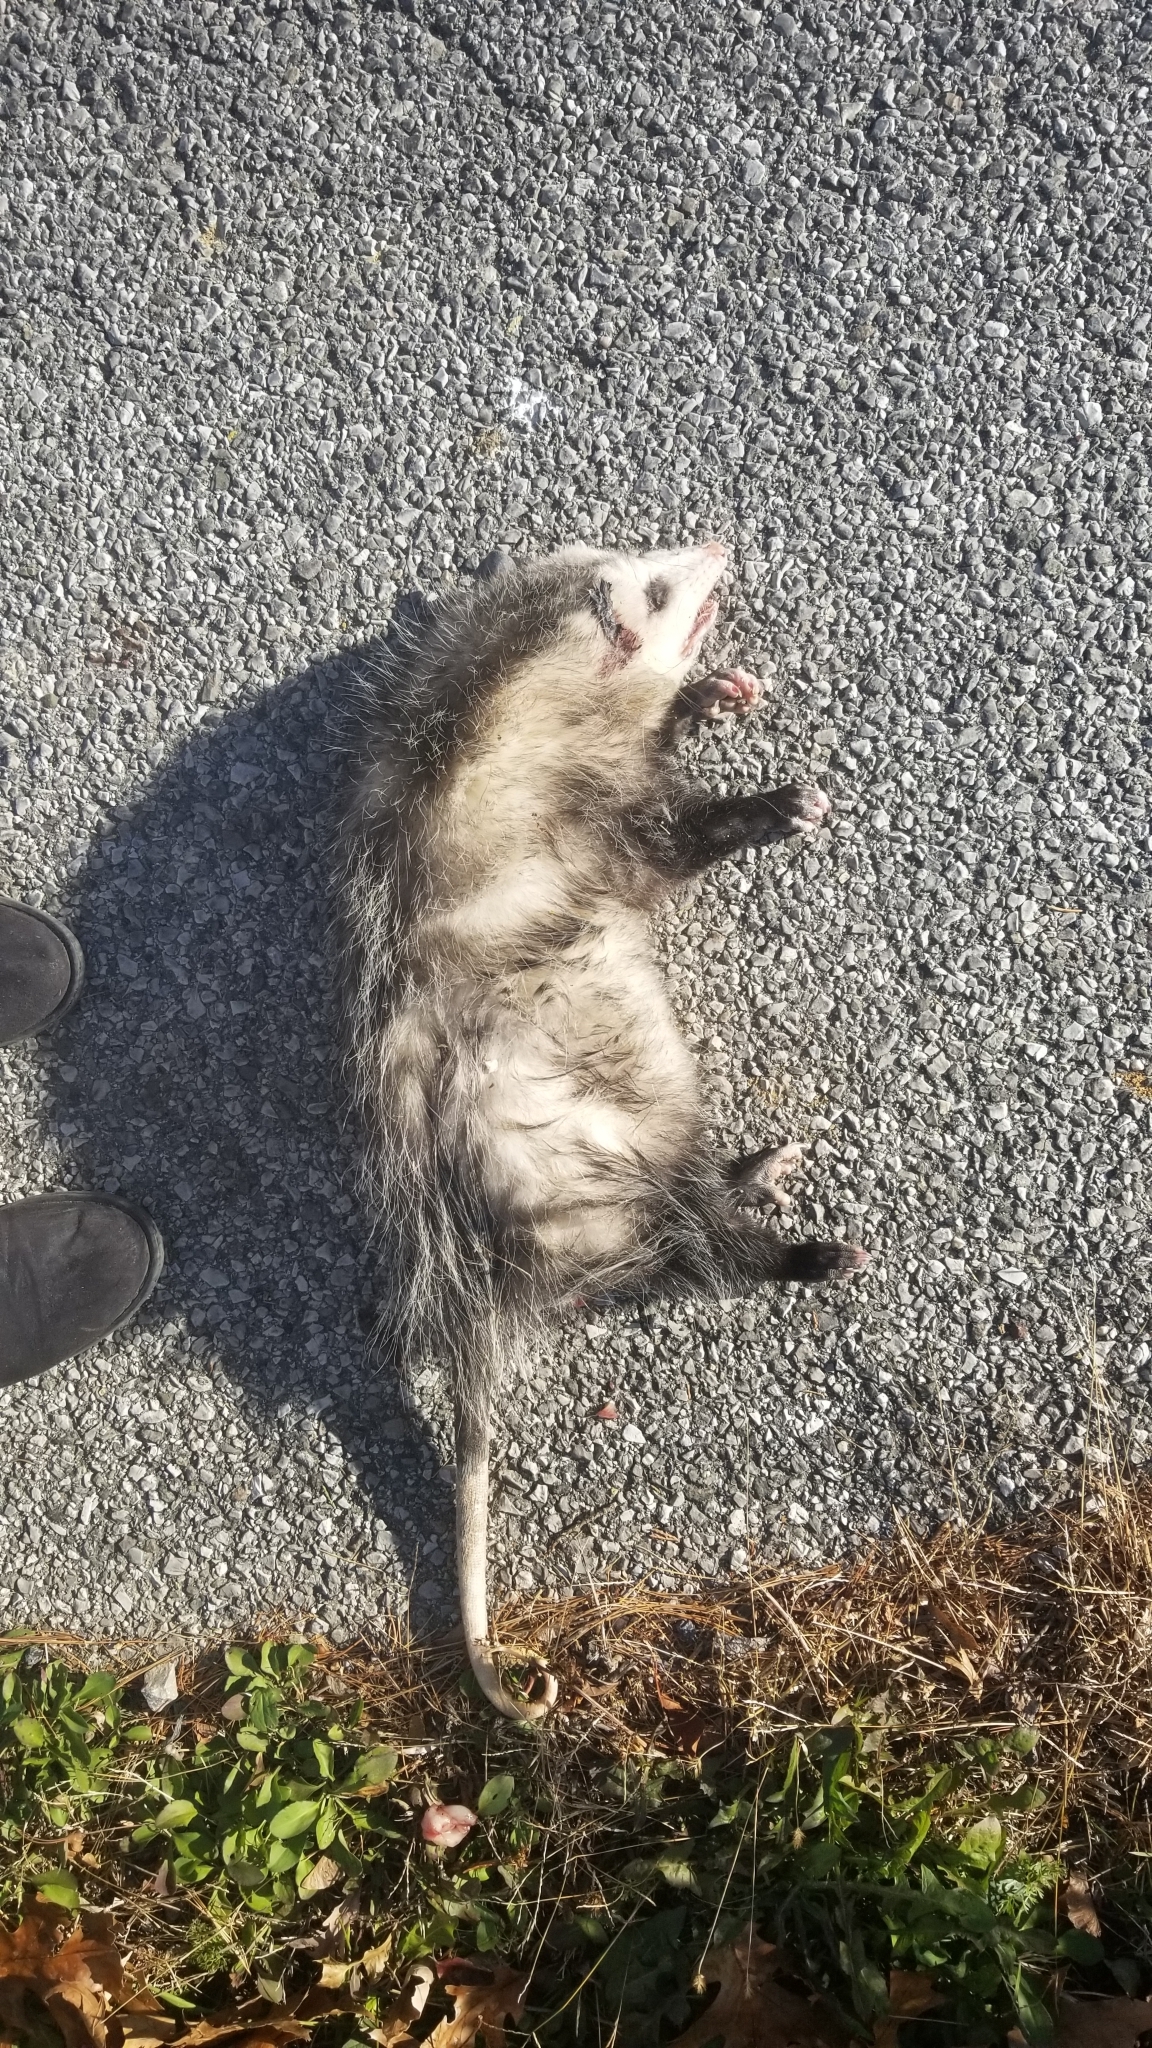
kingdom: Animalia
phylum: Chordata
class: Mammalia
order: Didelphimorphia
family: Didelphidae
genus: Didelphis
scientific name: Didelphis virginiana
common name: Virginia opossum
